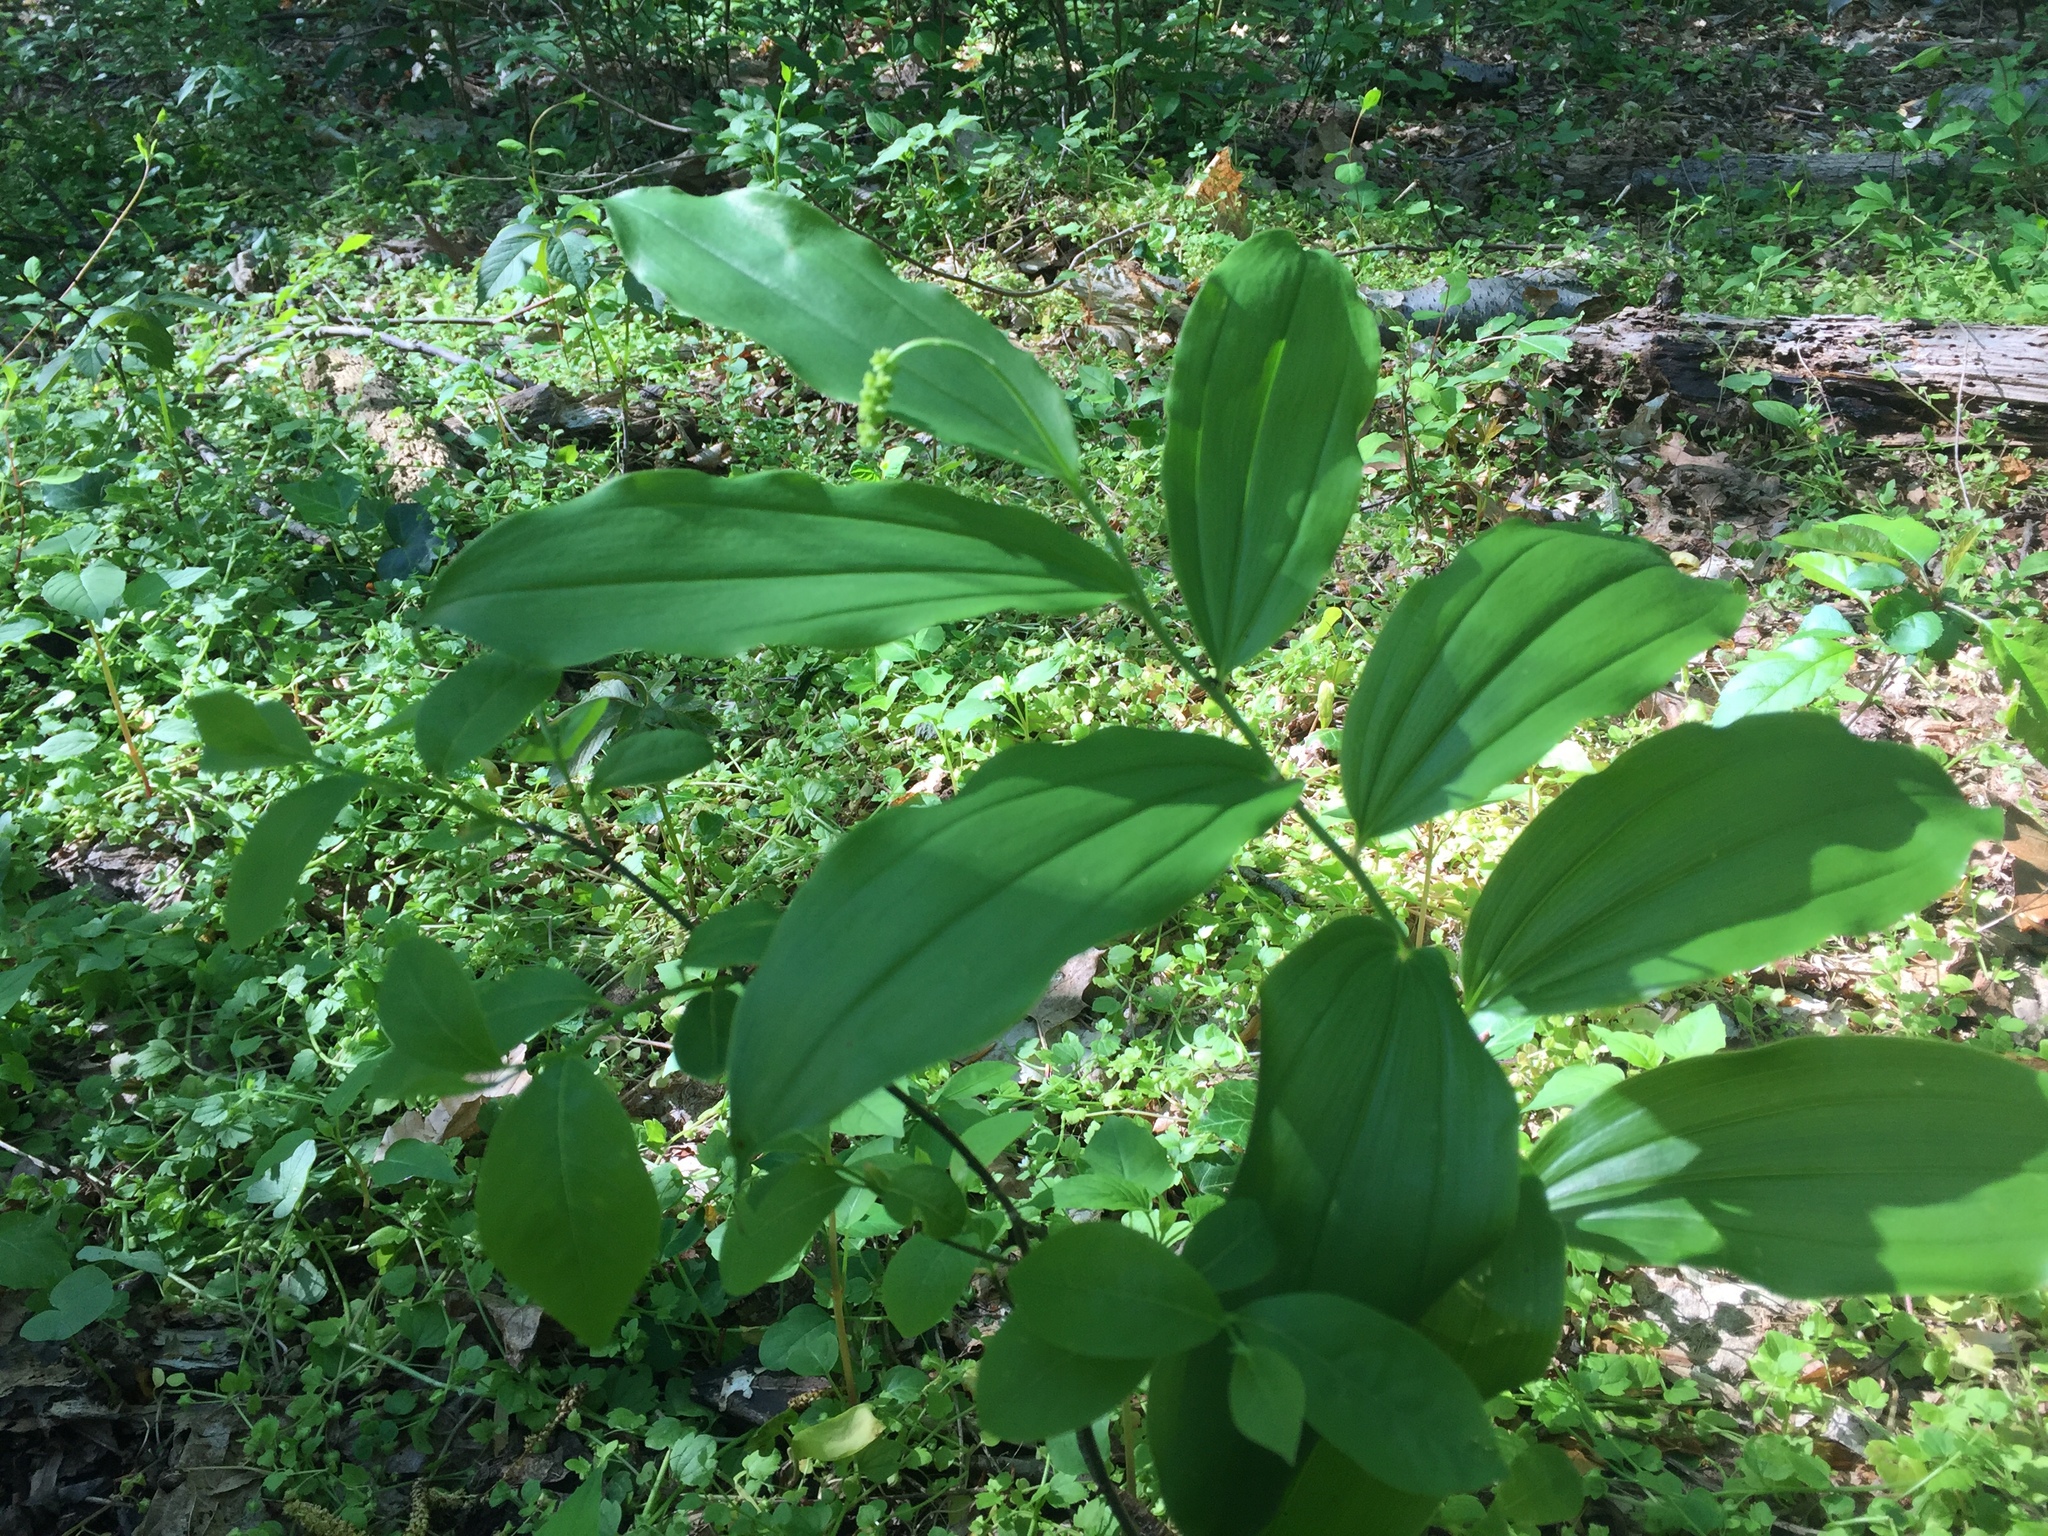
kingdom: Plantae
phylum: Tracheophyta
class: Liliopsida
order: Asparagales
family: Asparagaceae
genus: Maianthemum
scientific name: Maianthemum racemosum
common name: False spikenard
